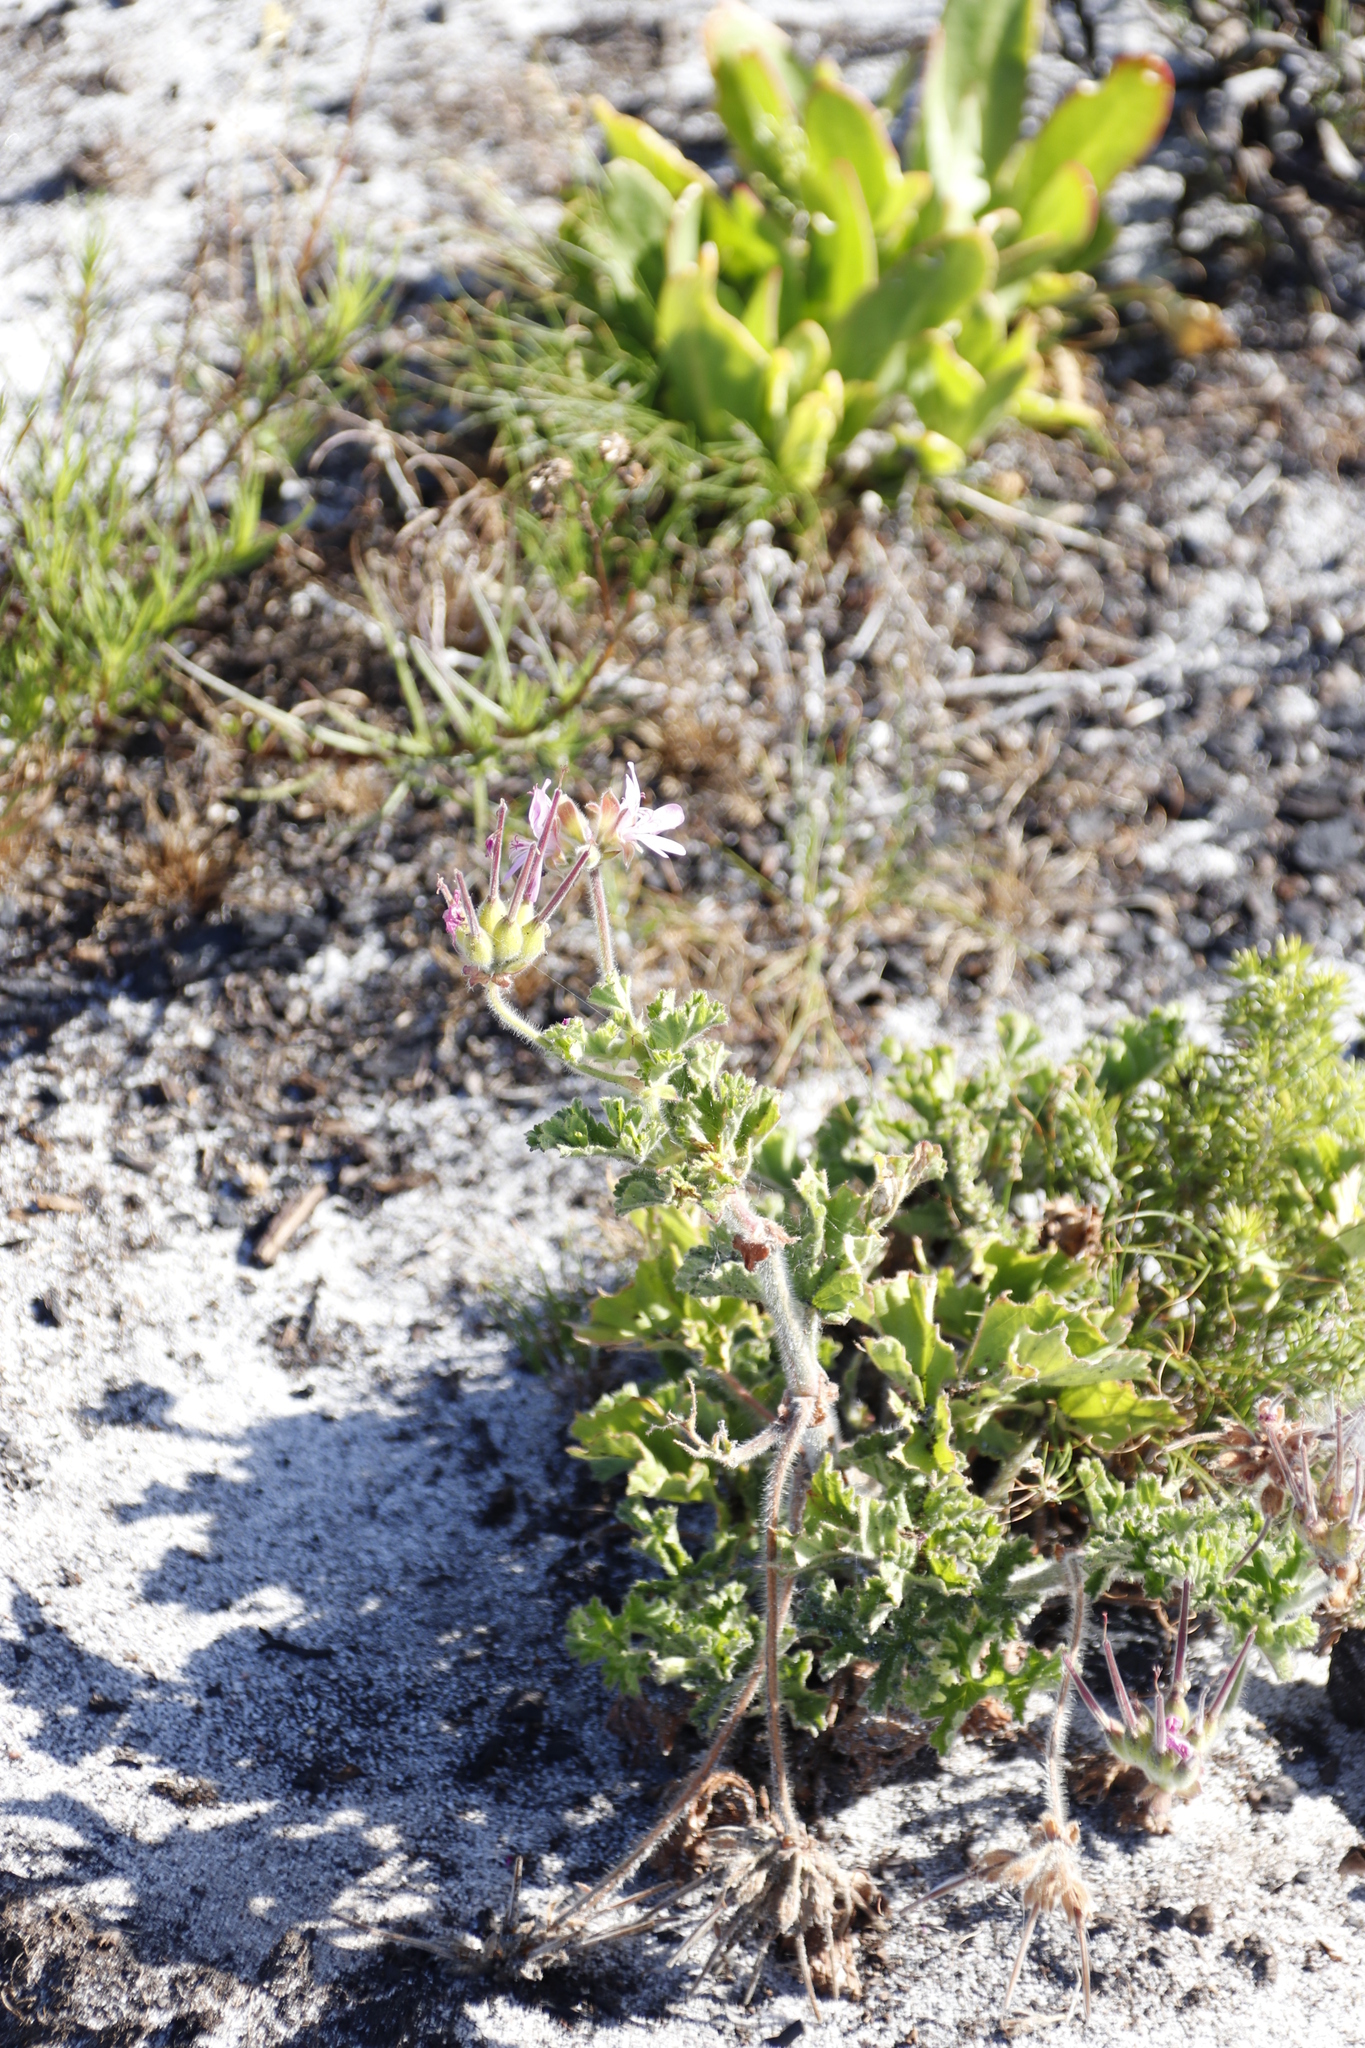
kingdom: Plantae
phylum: Tracheophyta
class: Magnoliopsida
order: Geraniales
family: Geraniaceae
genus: Pelargonium
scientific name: Pelargonium capitatum
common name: Rose scented geranium
